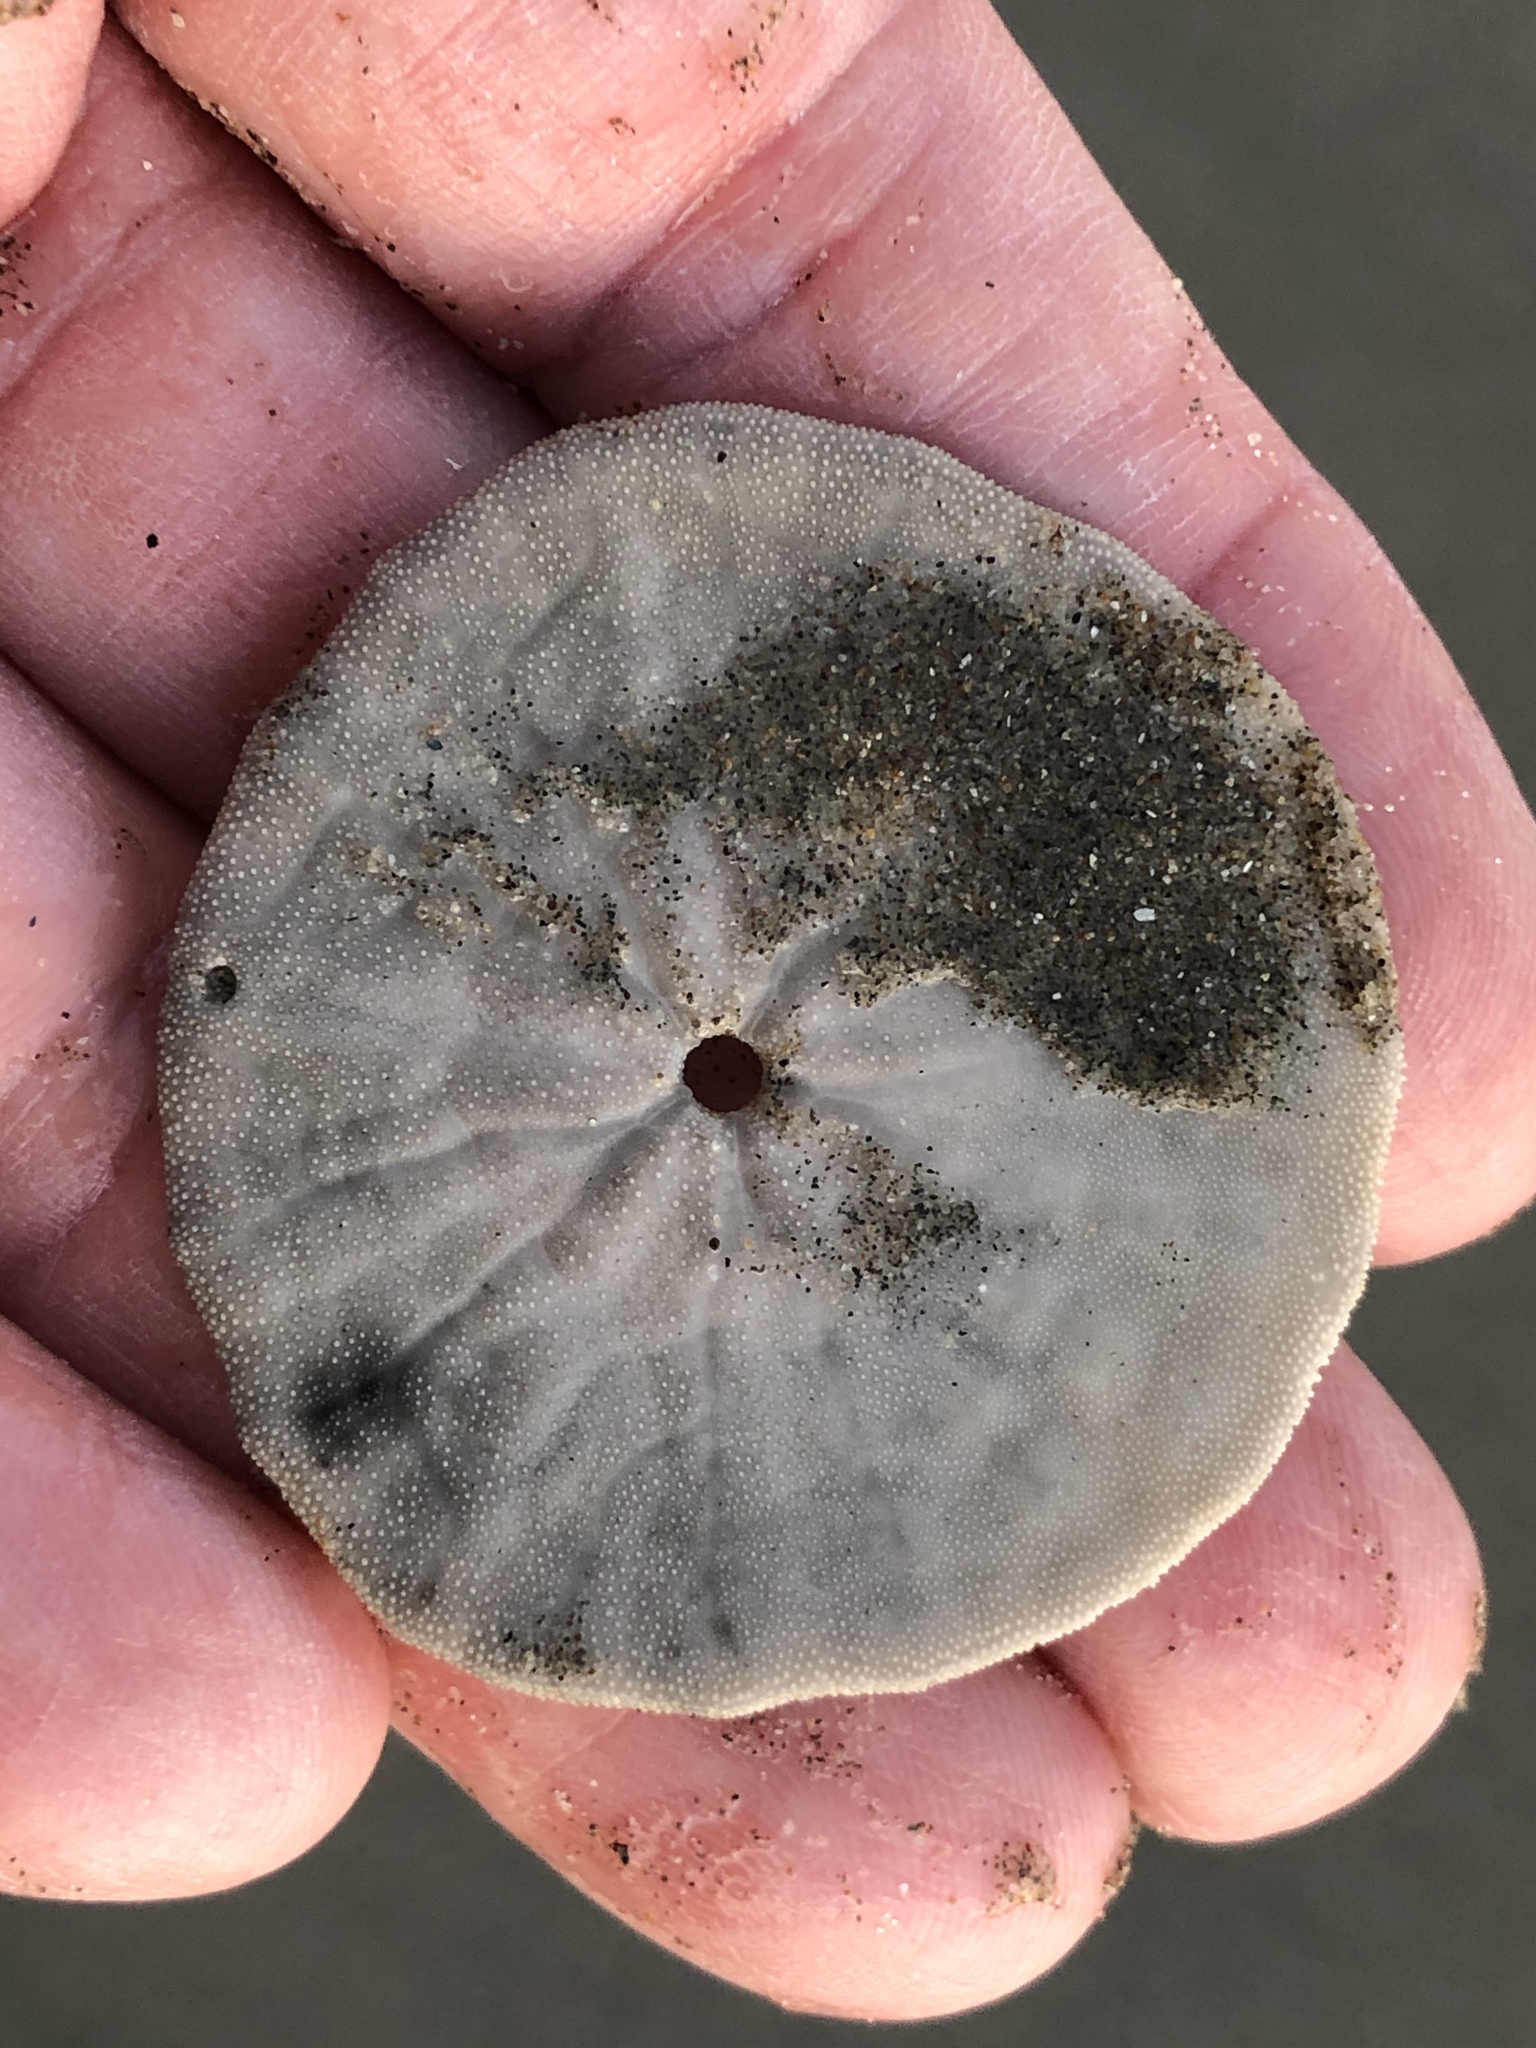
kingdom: Animalia
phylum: Echinodermata
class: Echinoidea
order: Echinolampadacea
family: Dendrasteridae
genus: Dendraster
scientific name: Dendraster excentricus
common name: Eccentric sand dollar sea urchin
